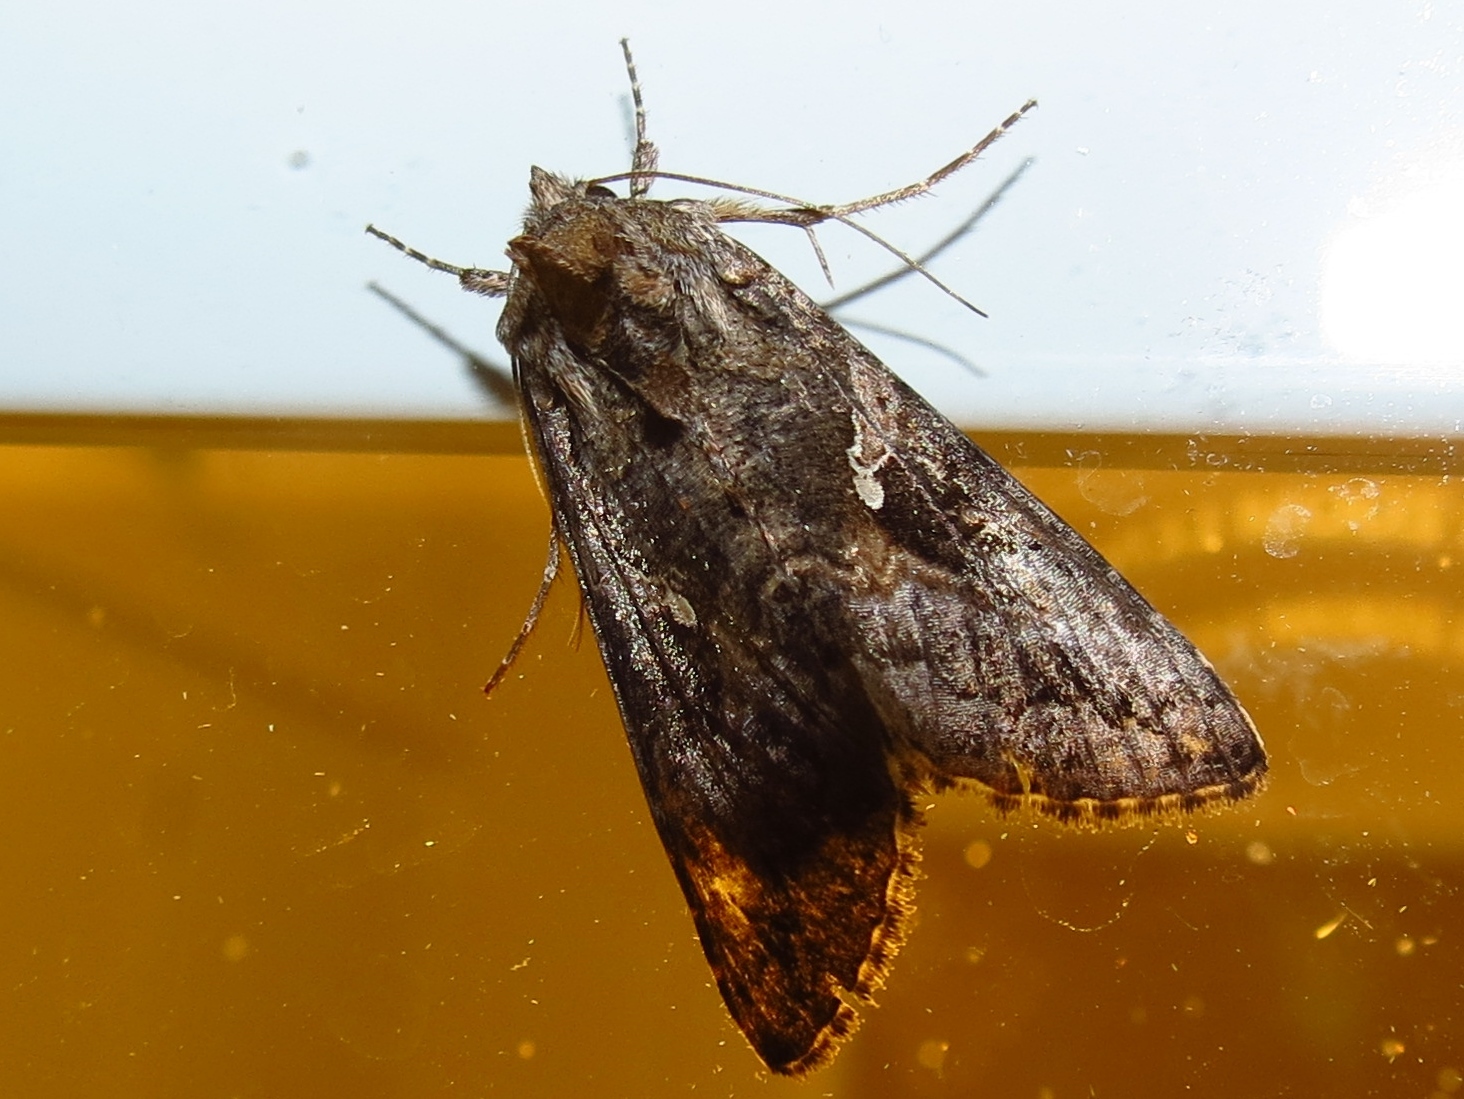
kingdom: Animalia
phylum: Arthropoda
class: Insecta
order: Lepidoptera
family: Noctuidae
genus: Rachiplusia
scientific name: Rachiplusia ou
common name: Gray looper moth
